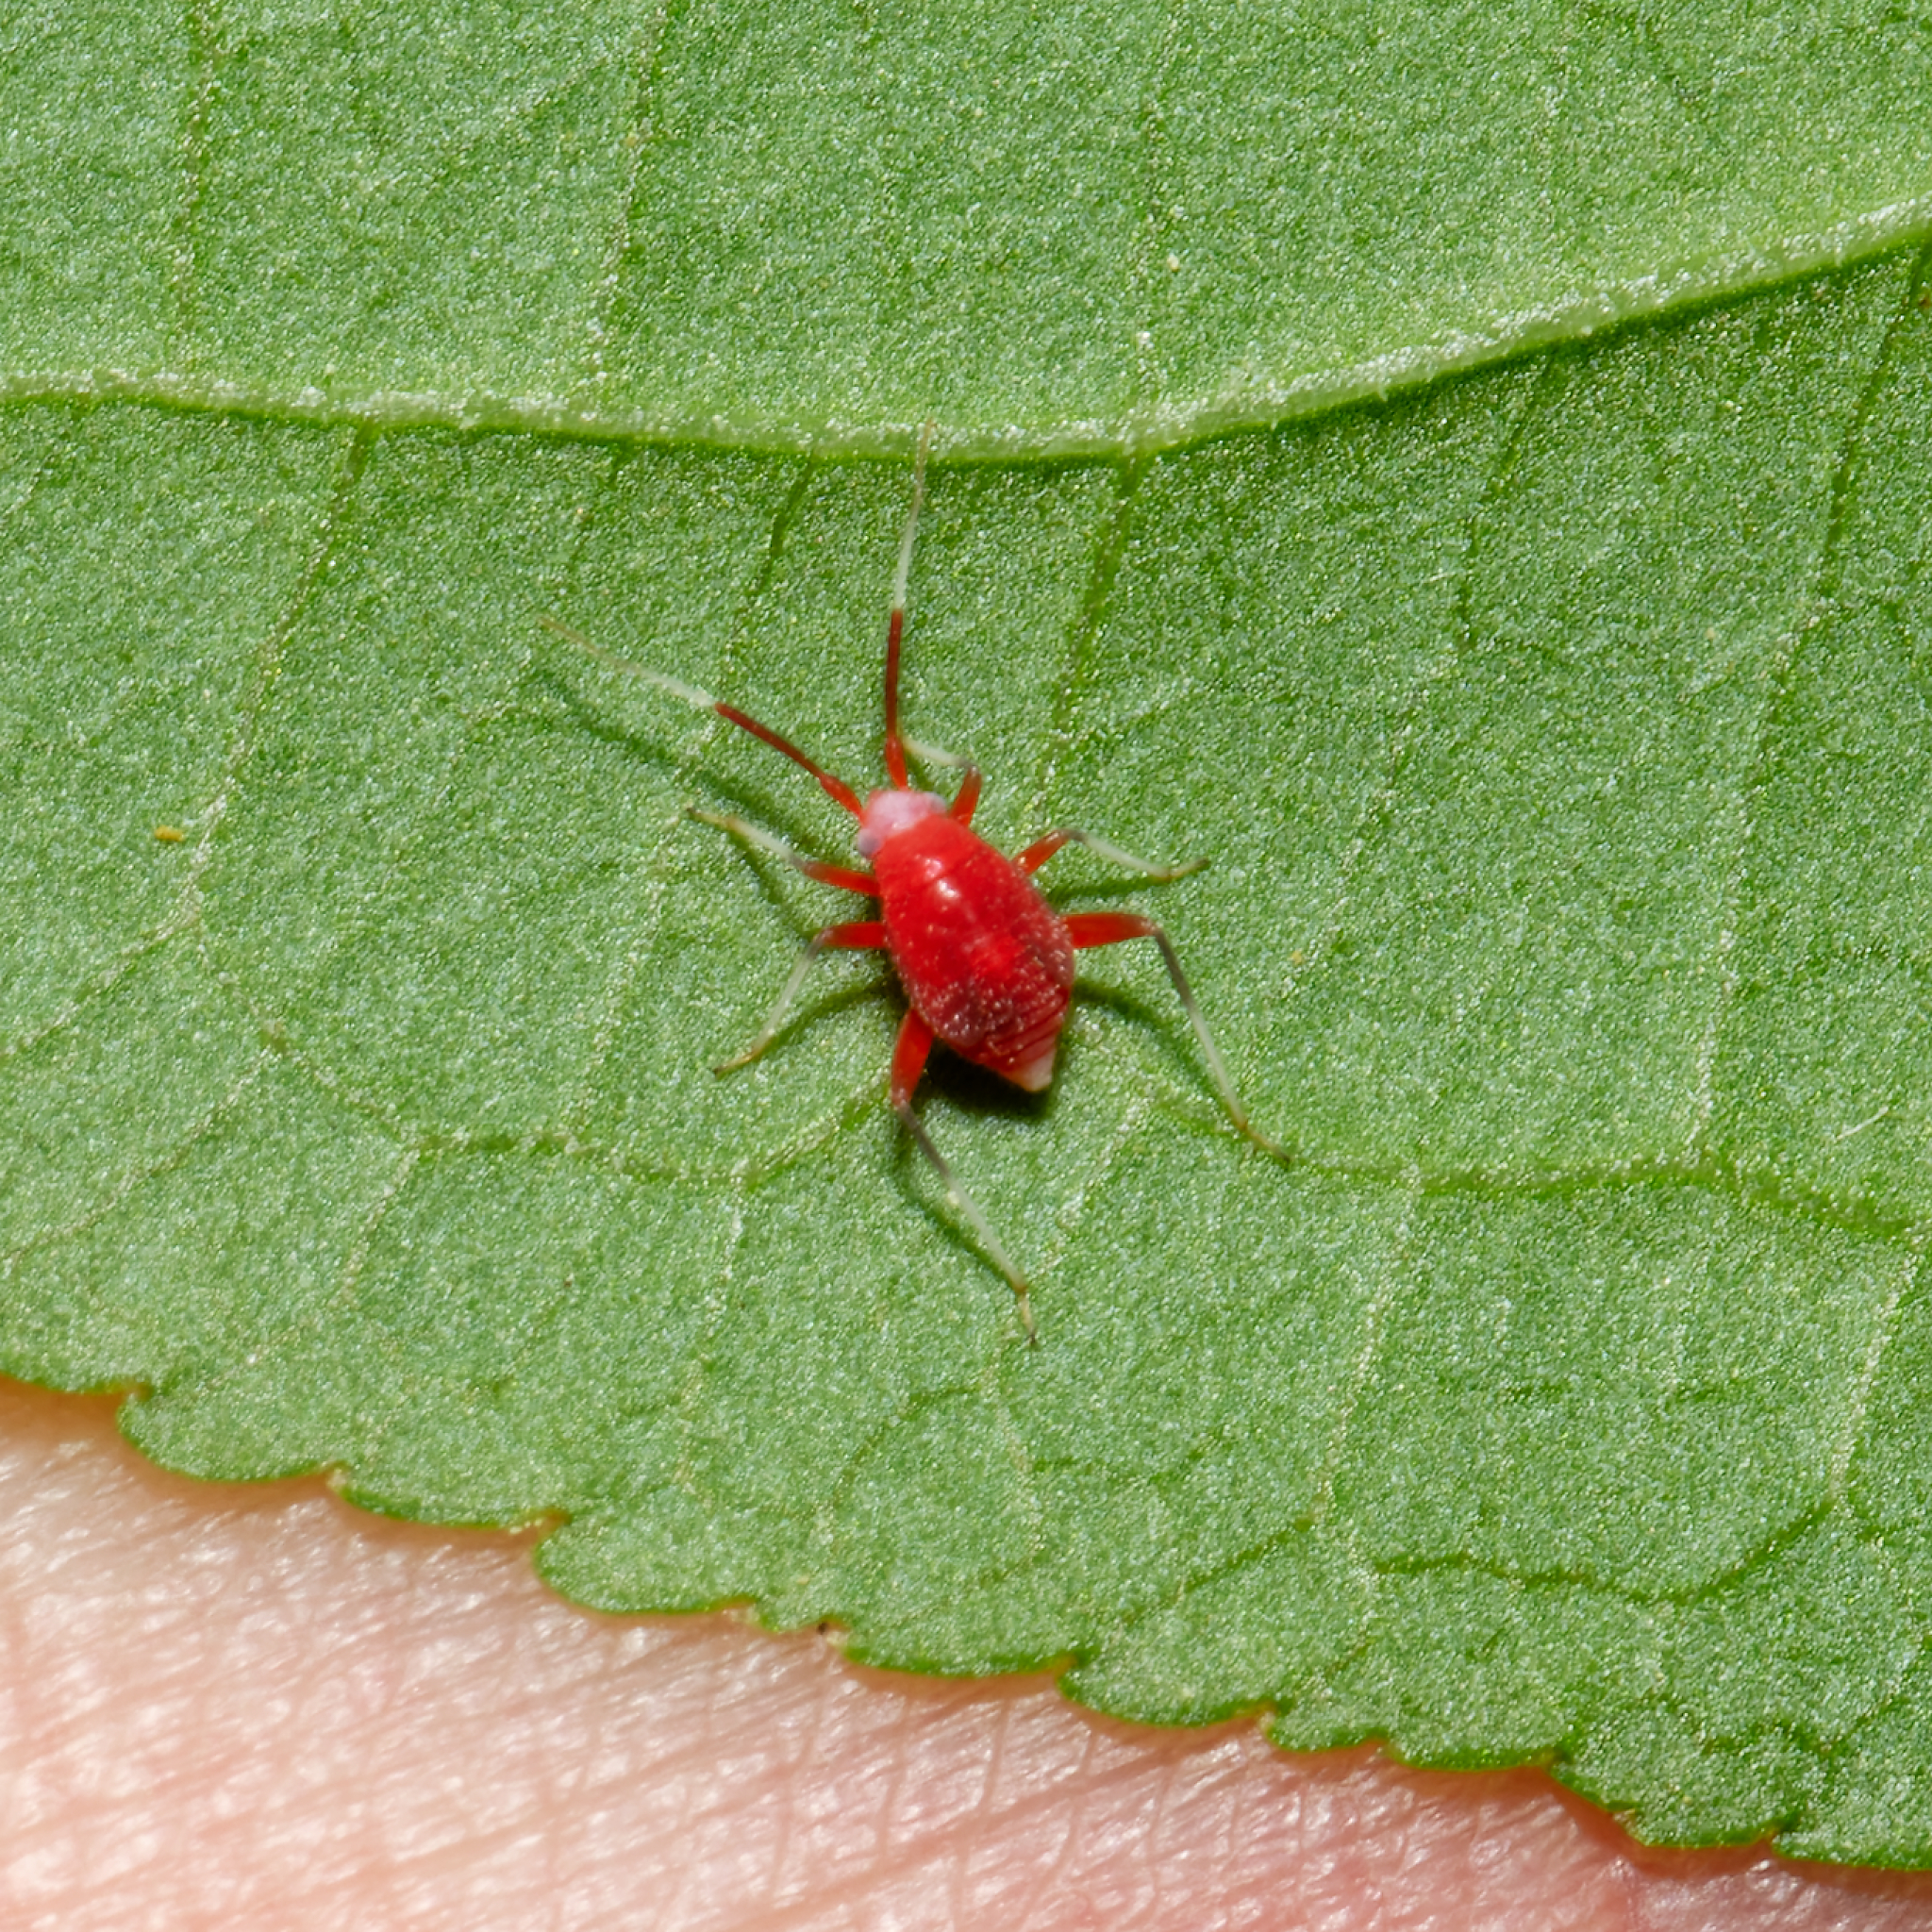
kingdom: Animalia
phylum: Arthropoda
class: Insecta
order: Hemiptera
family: Miridae
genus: Coccobaphes
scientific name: Coccobaphes frontifer
